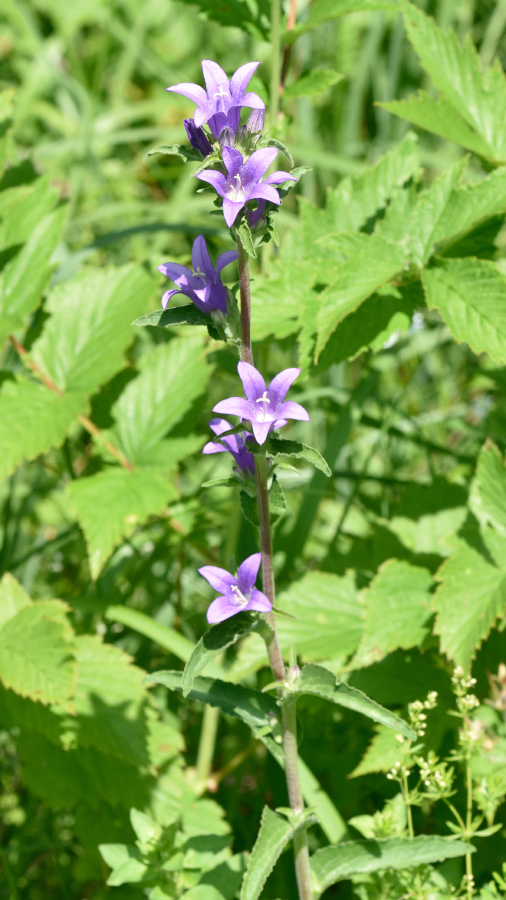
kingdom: Plantae
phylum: Tracheophyta
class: Magnoliopsida
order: Asterales
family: Campanulaceae
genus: Campanula
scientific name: Campanula glomerata
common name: Clustered bellflower
